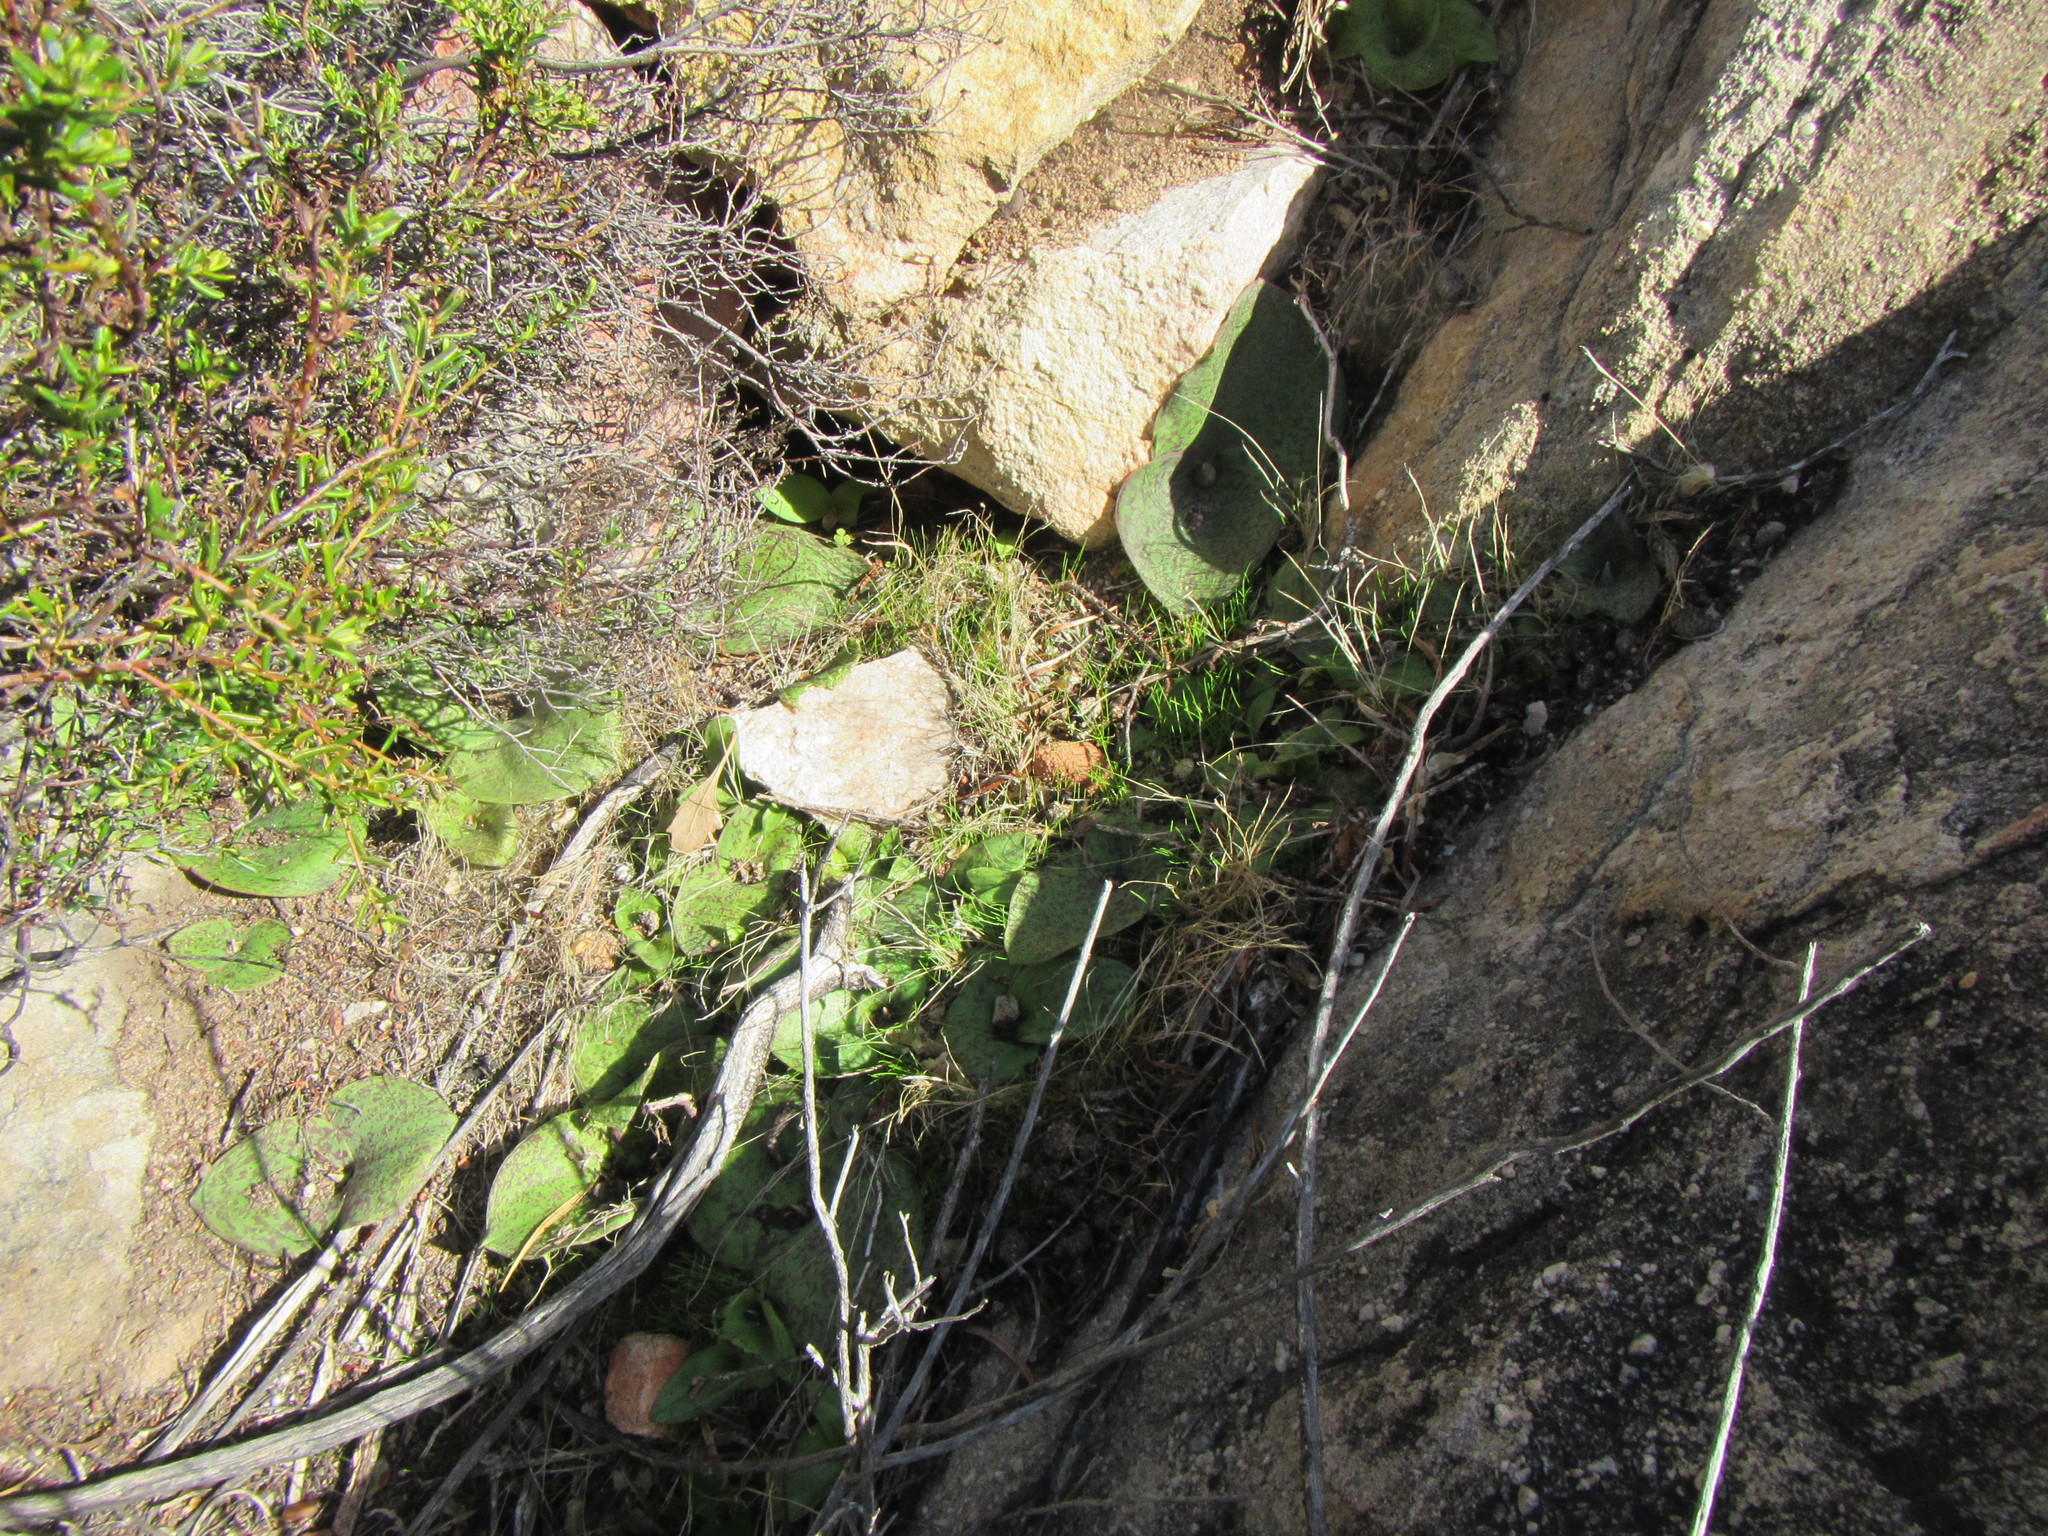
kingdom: Plantae
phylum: Tracheophyta
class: Liliopsida
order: Asparagales
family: Asparagaceae
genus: Massonia
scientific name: Massonia depressa
